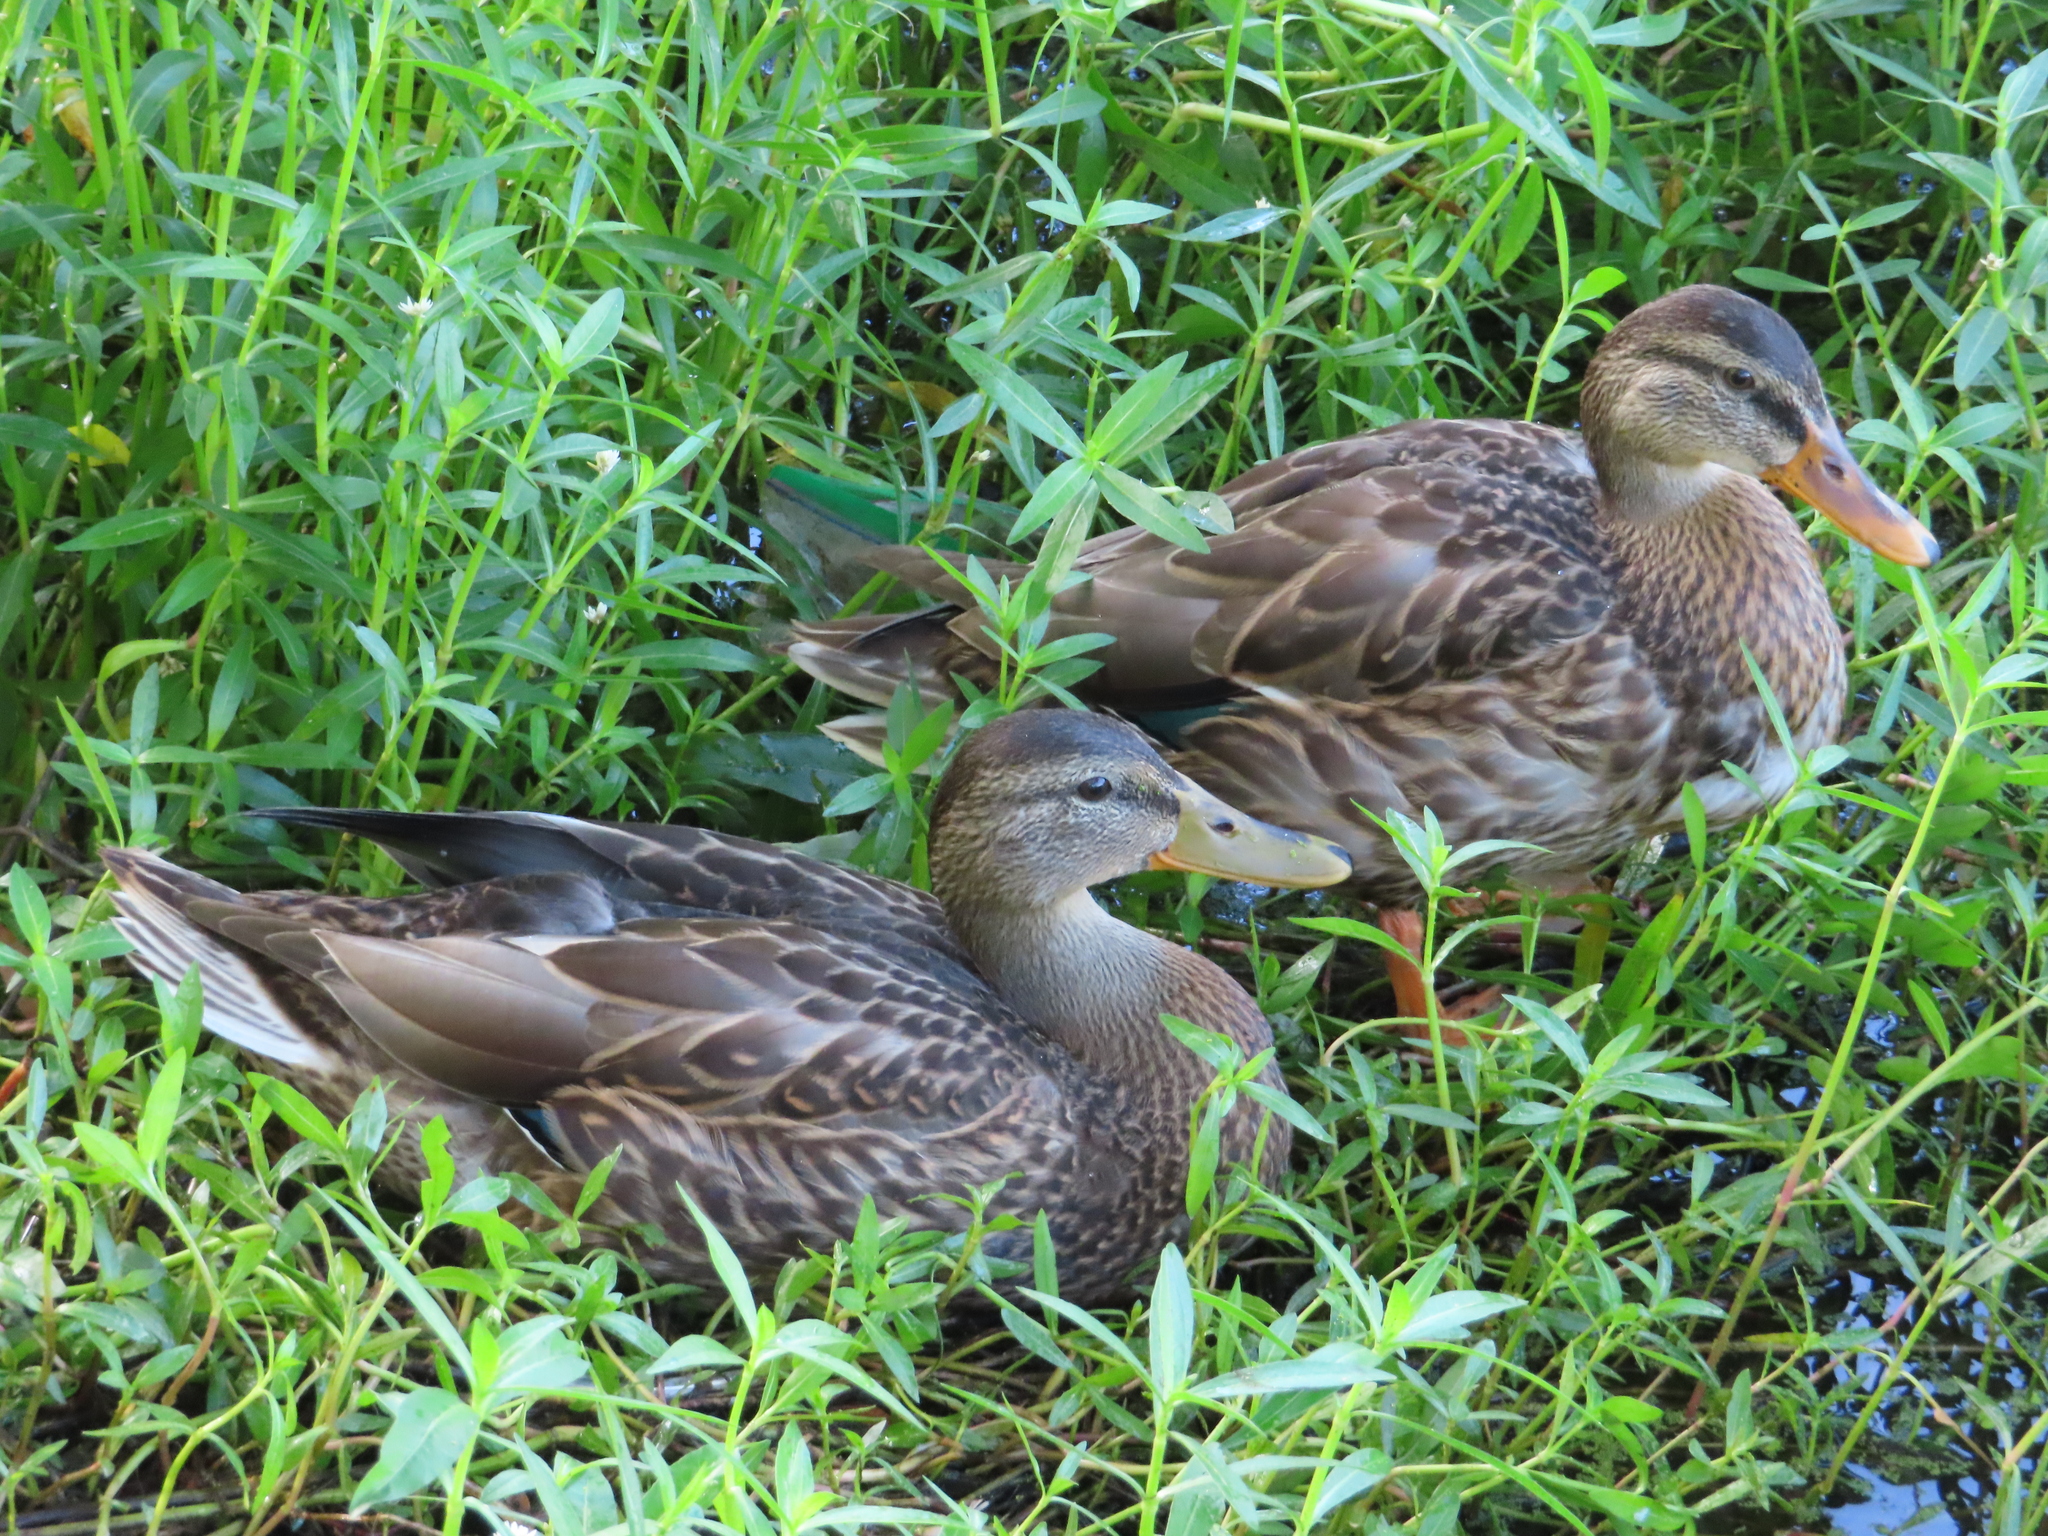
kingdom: Animalia
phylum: Chordata
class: Aves
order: Anseriformes
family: Anatidae
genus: Anas
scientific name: Anas platyrhynchos
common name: Mallard
